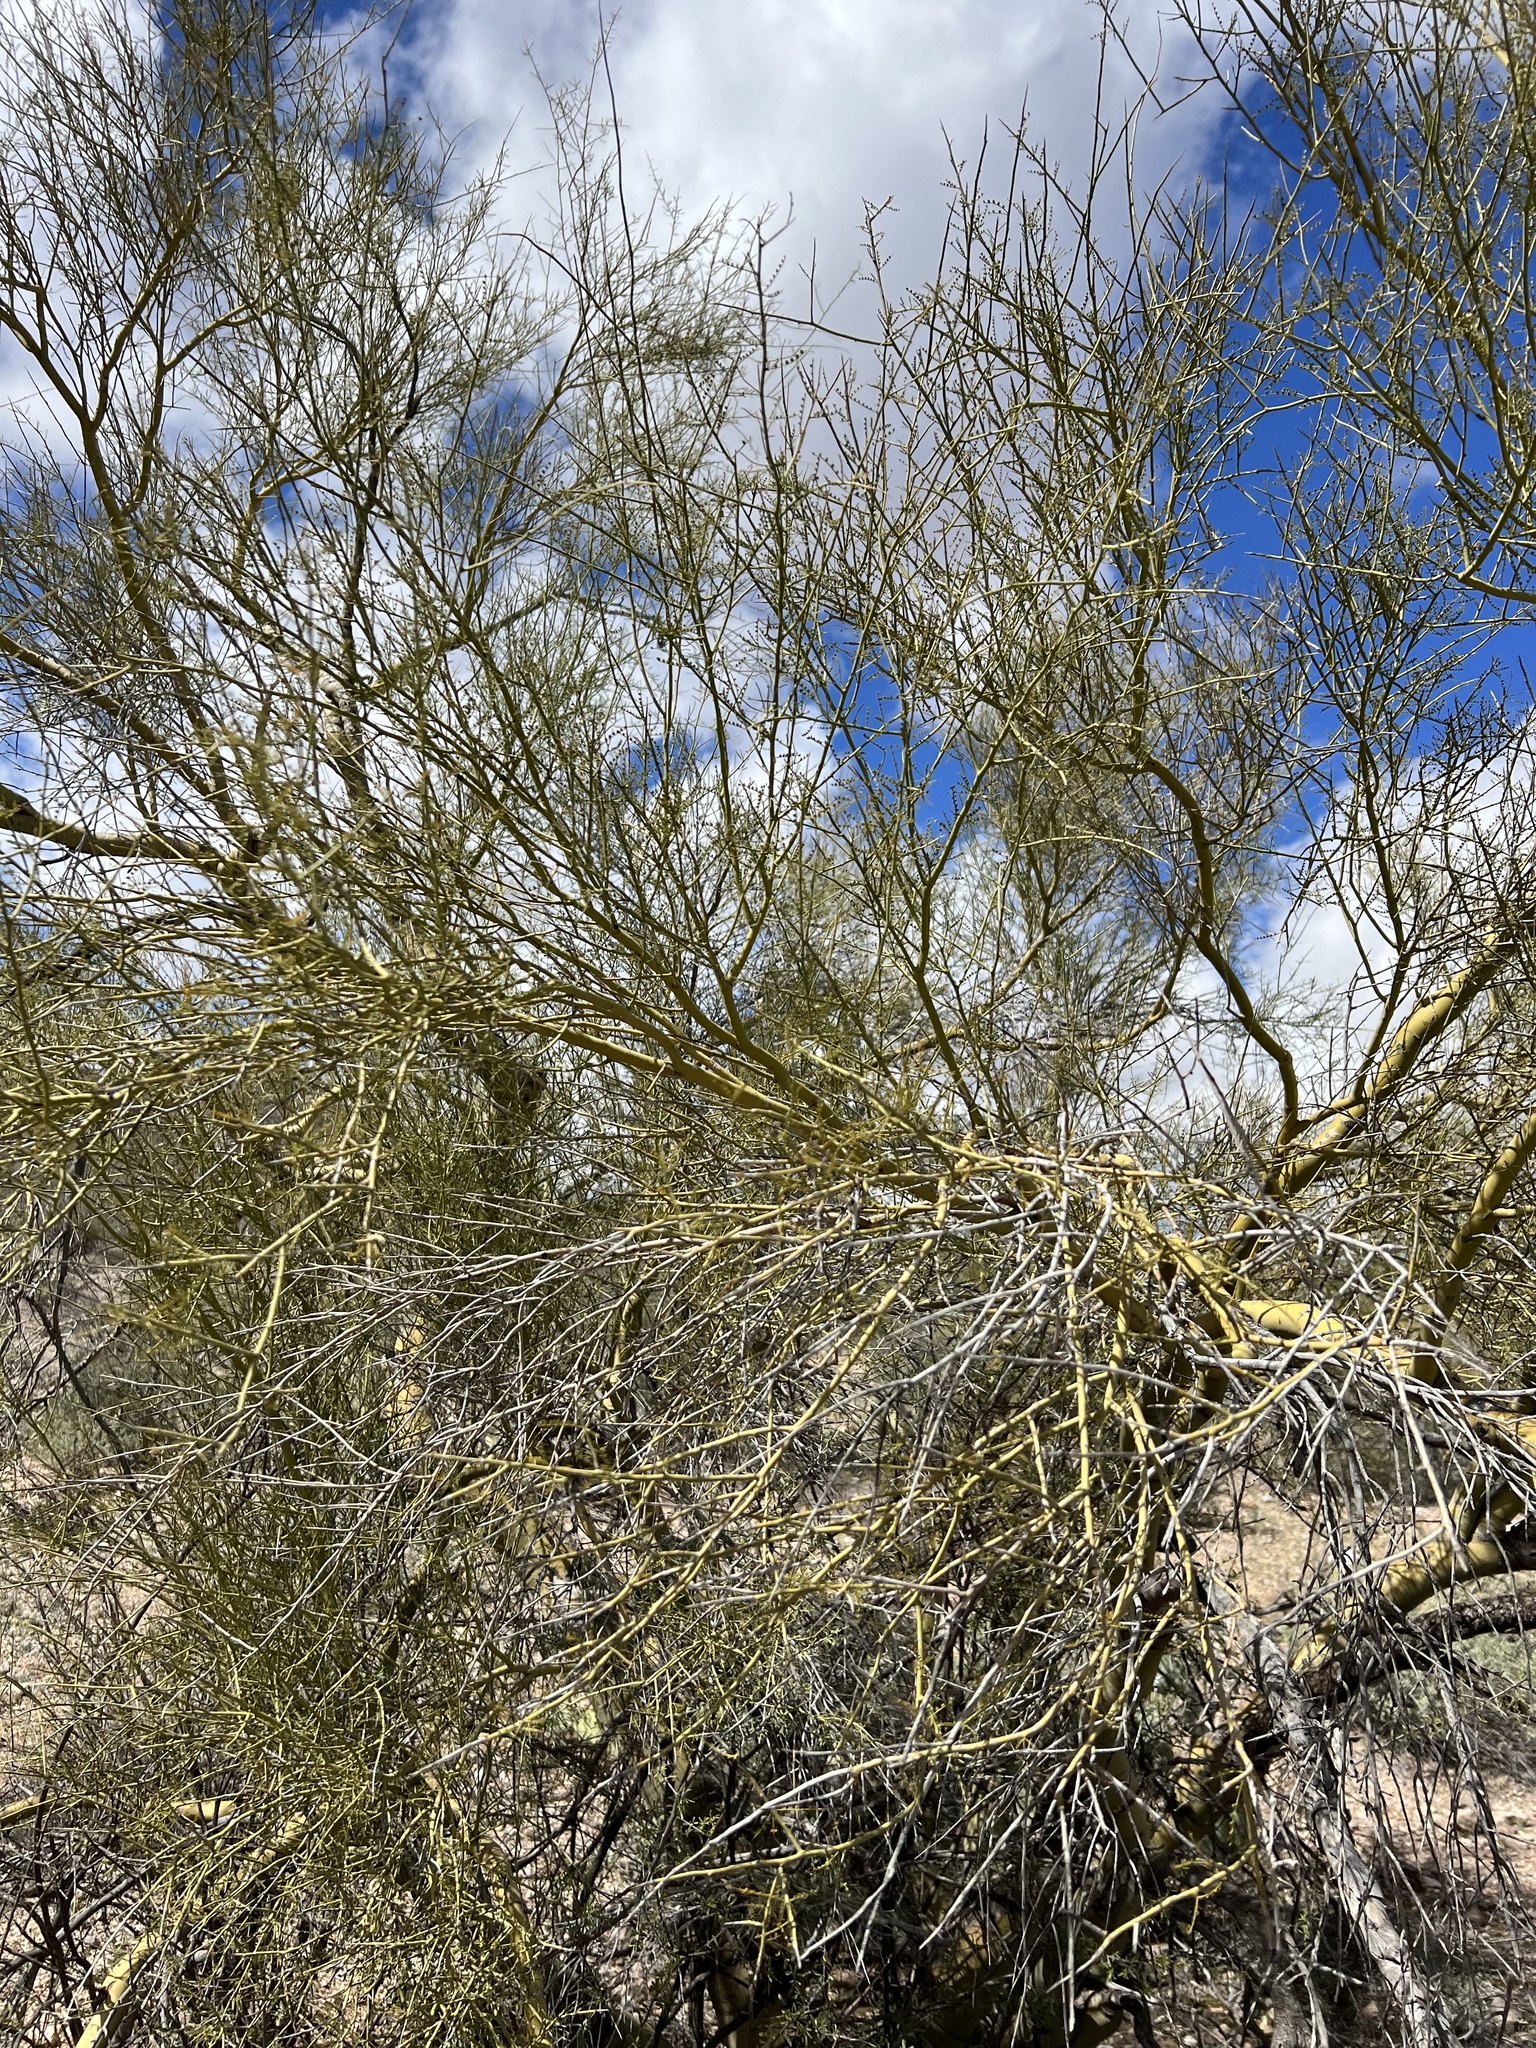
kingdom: Plantae
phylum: Tracheophyta
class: Magnoliopsida
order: Fabales
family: Fabaceae
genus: Parkinsonia
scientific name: Parkinsonia microphylla
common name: Yellow paloverde
